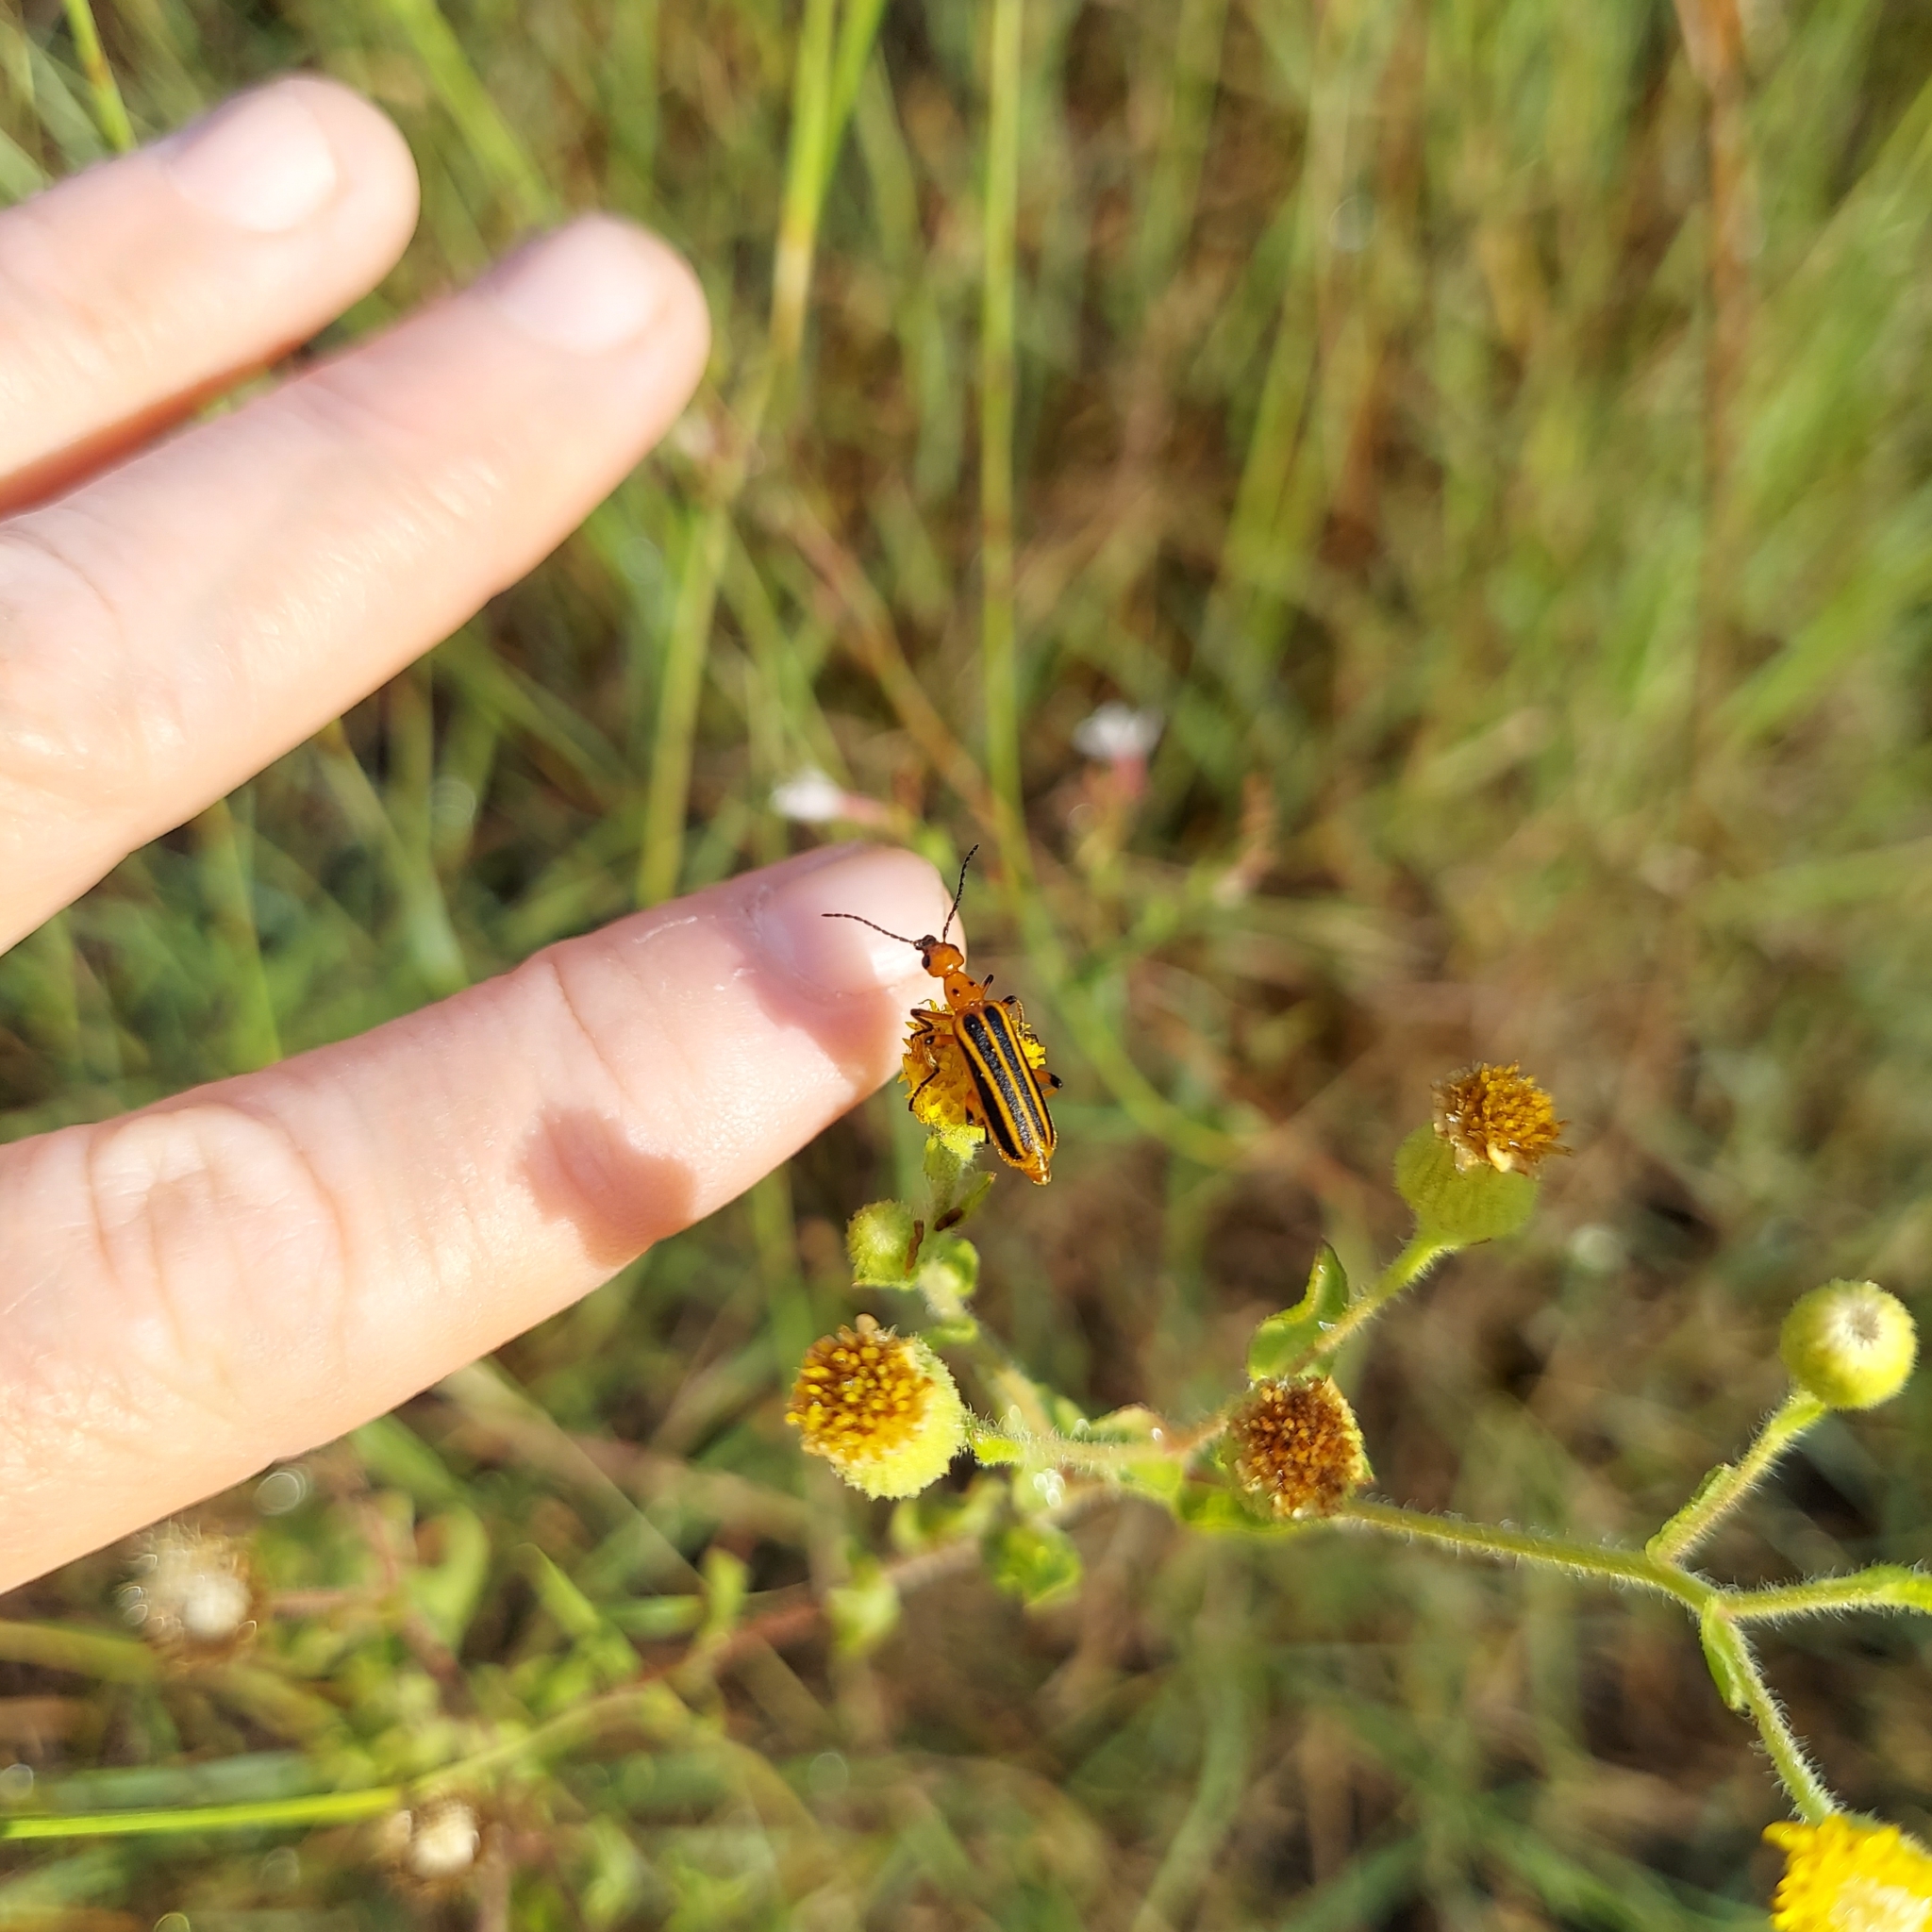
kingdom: Animalia
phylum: Arthropoda
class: Insecta
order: Coleoptera
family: Meloidae
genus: Pyrota
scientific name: Pyrota
